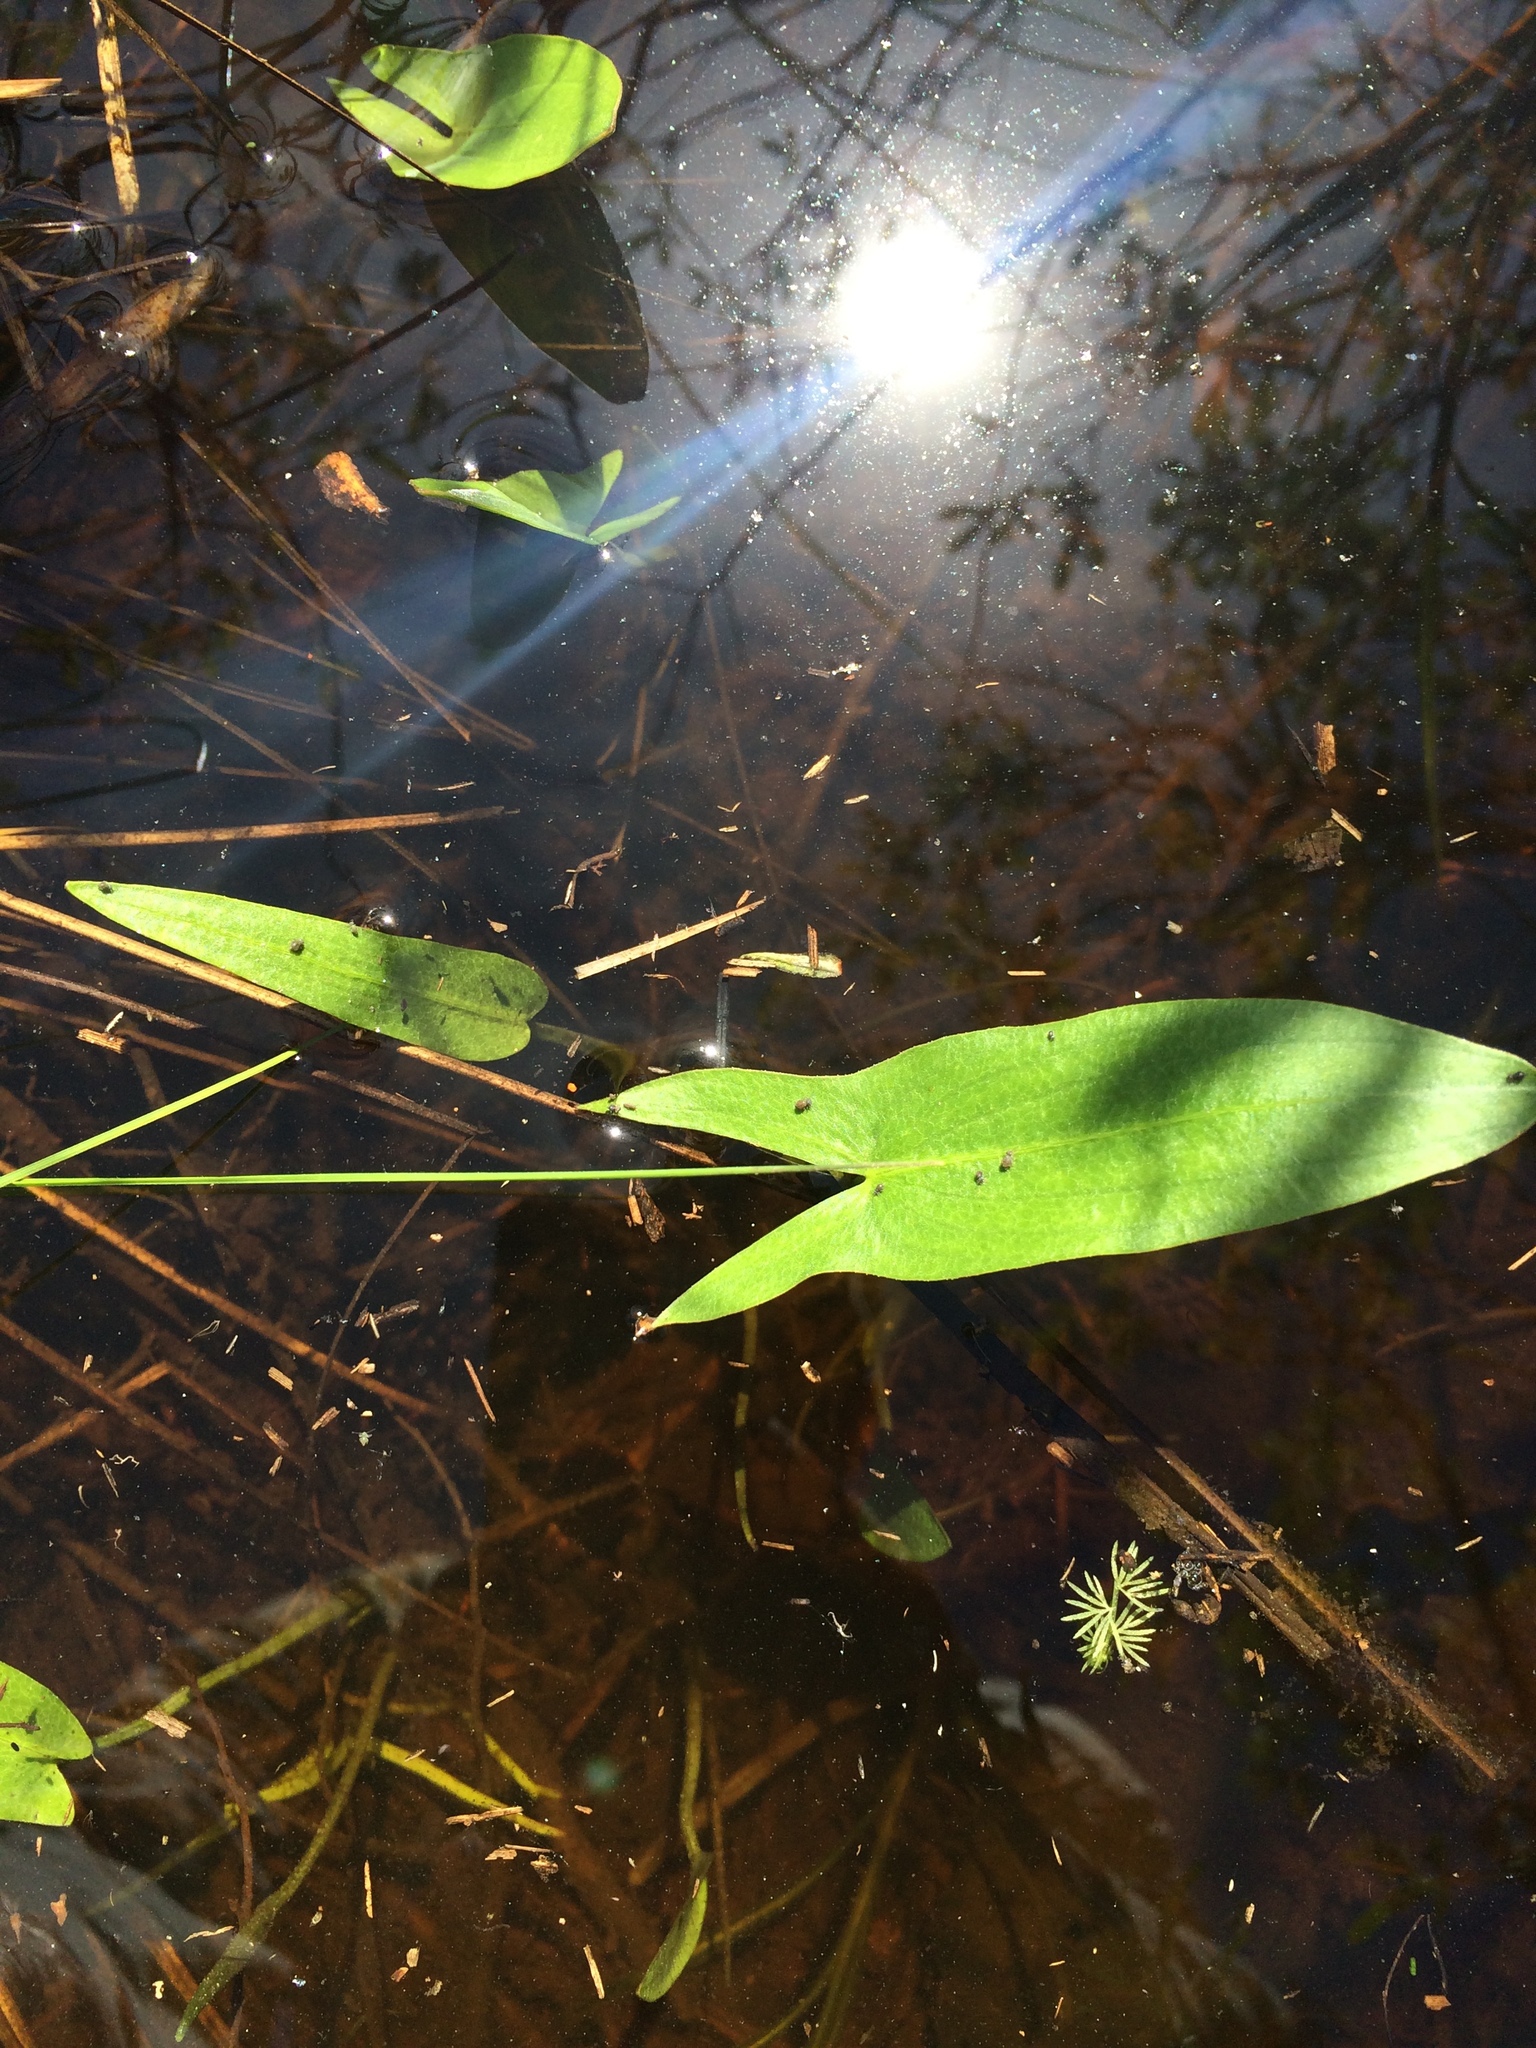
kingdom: Plantae
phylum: Tracheophyta
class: Liliopsida
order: Alismatales
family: Alismataceae
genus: Sagittaria
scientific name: Sagittaria latifolia
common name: Duck-potato
